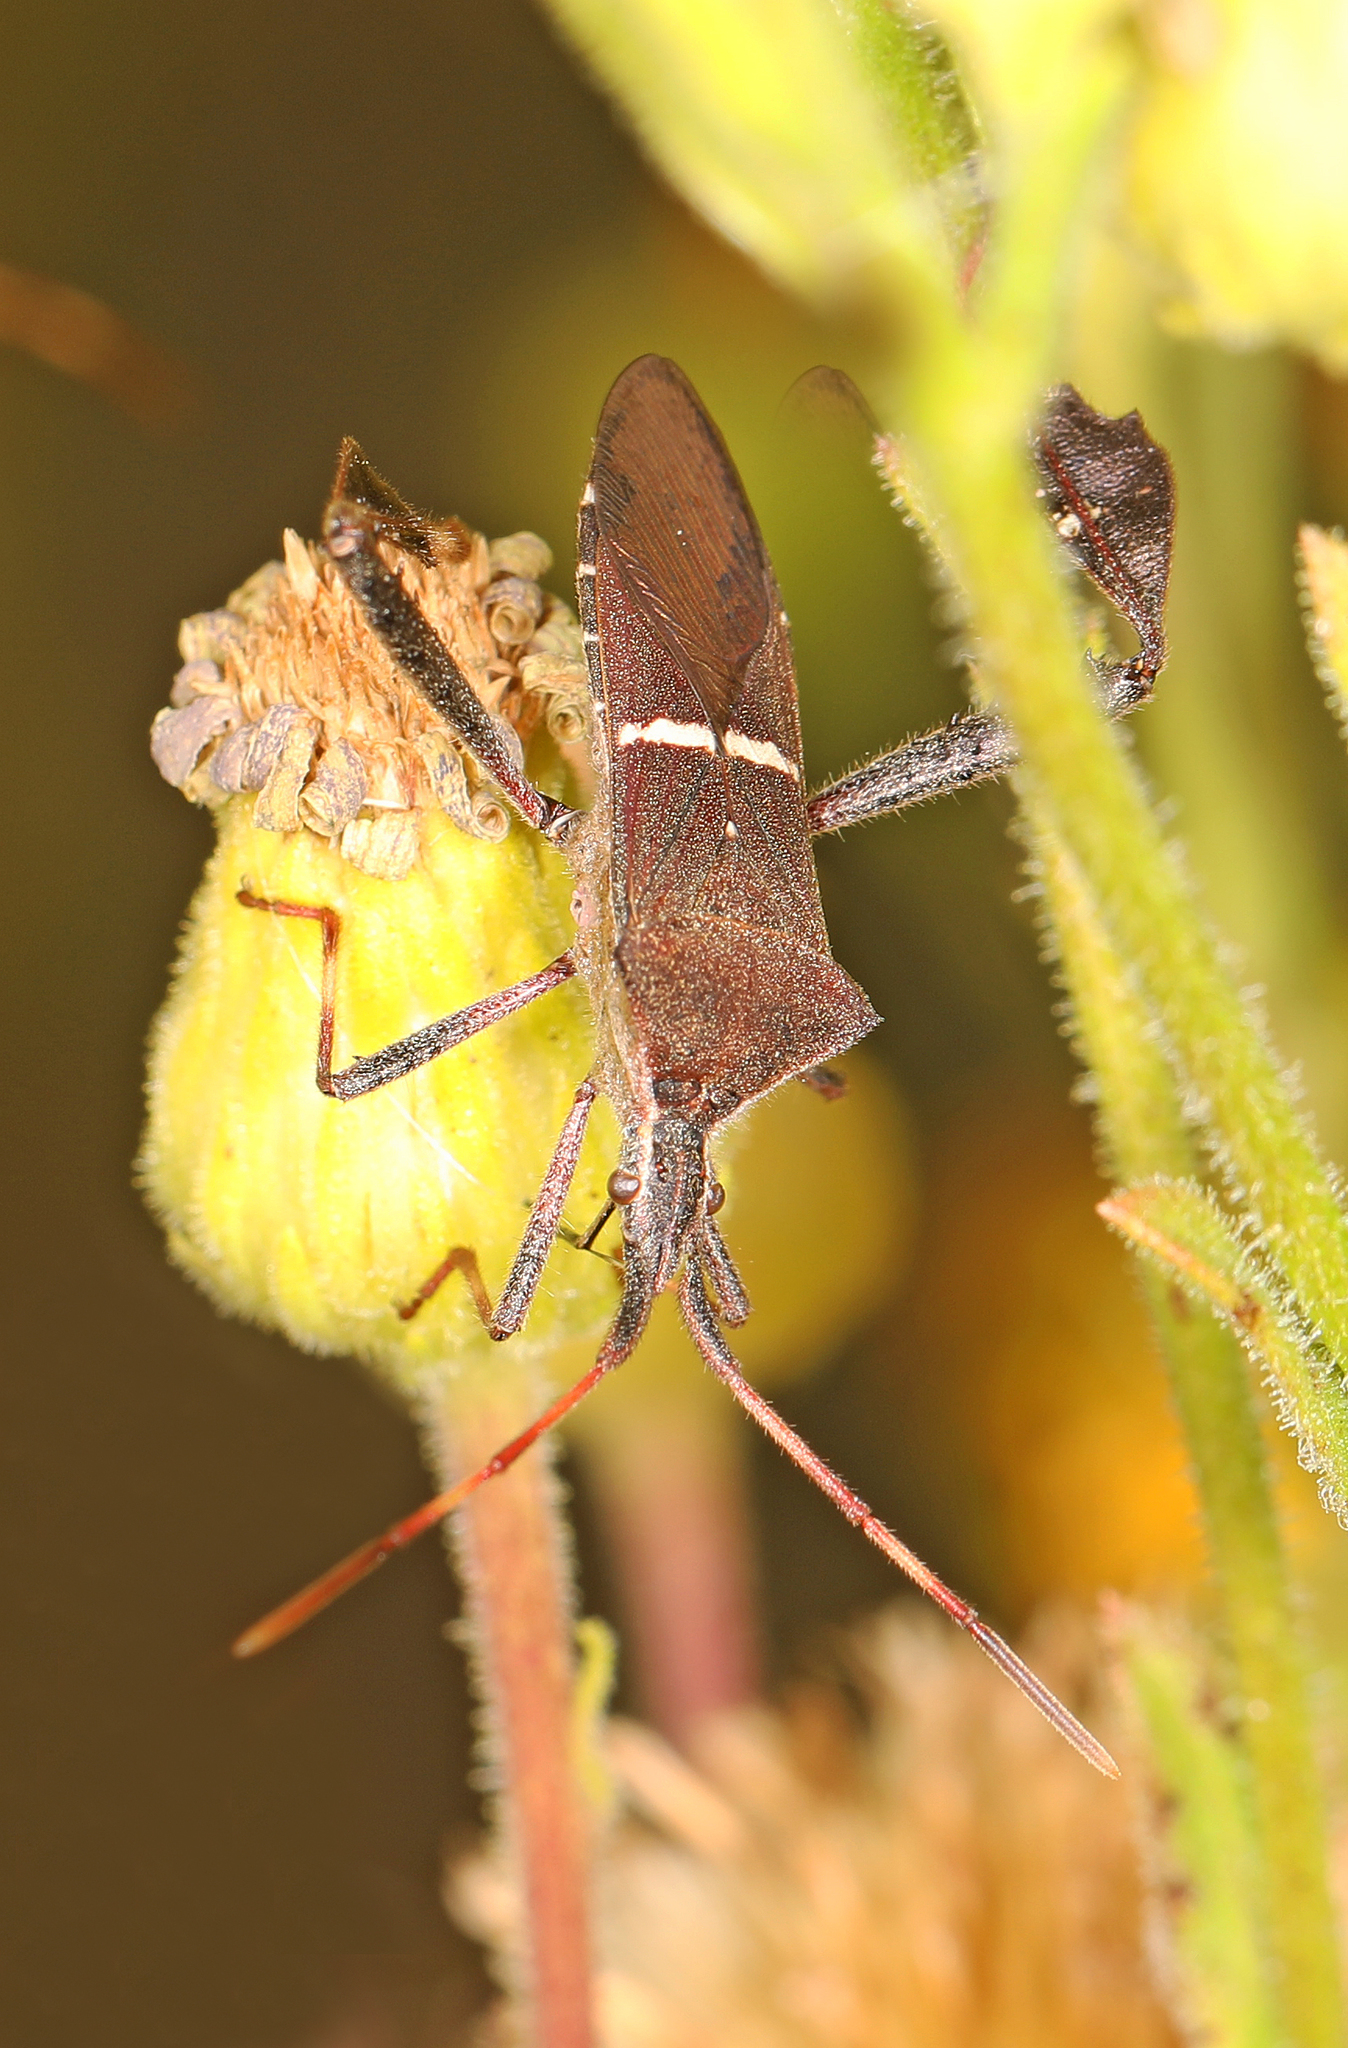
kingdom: Animalia
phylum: Arthropoda
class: Insecta
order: Hemiptera
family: Coreidae
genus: Leptoglossus
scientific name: Leptoglossus phyllopus
